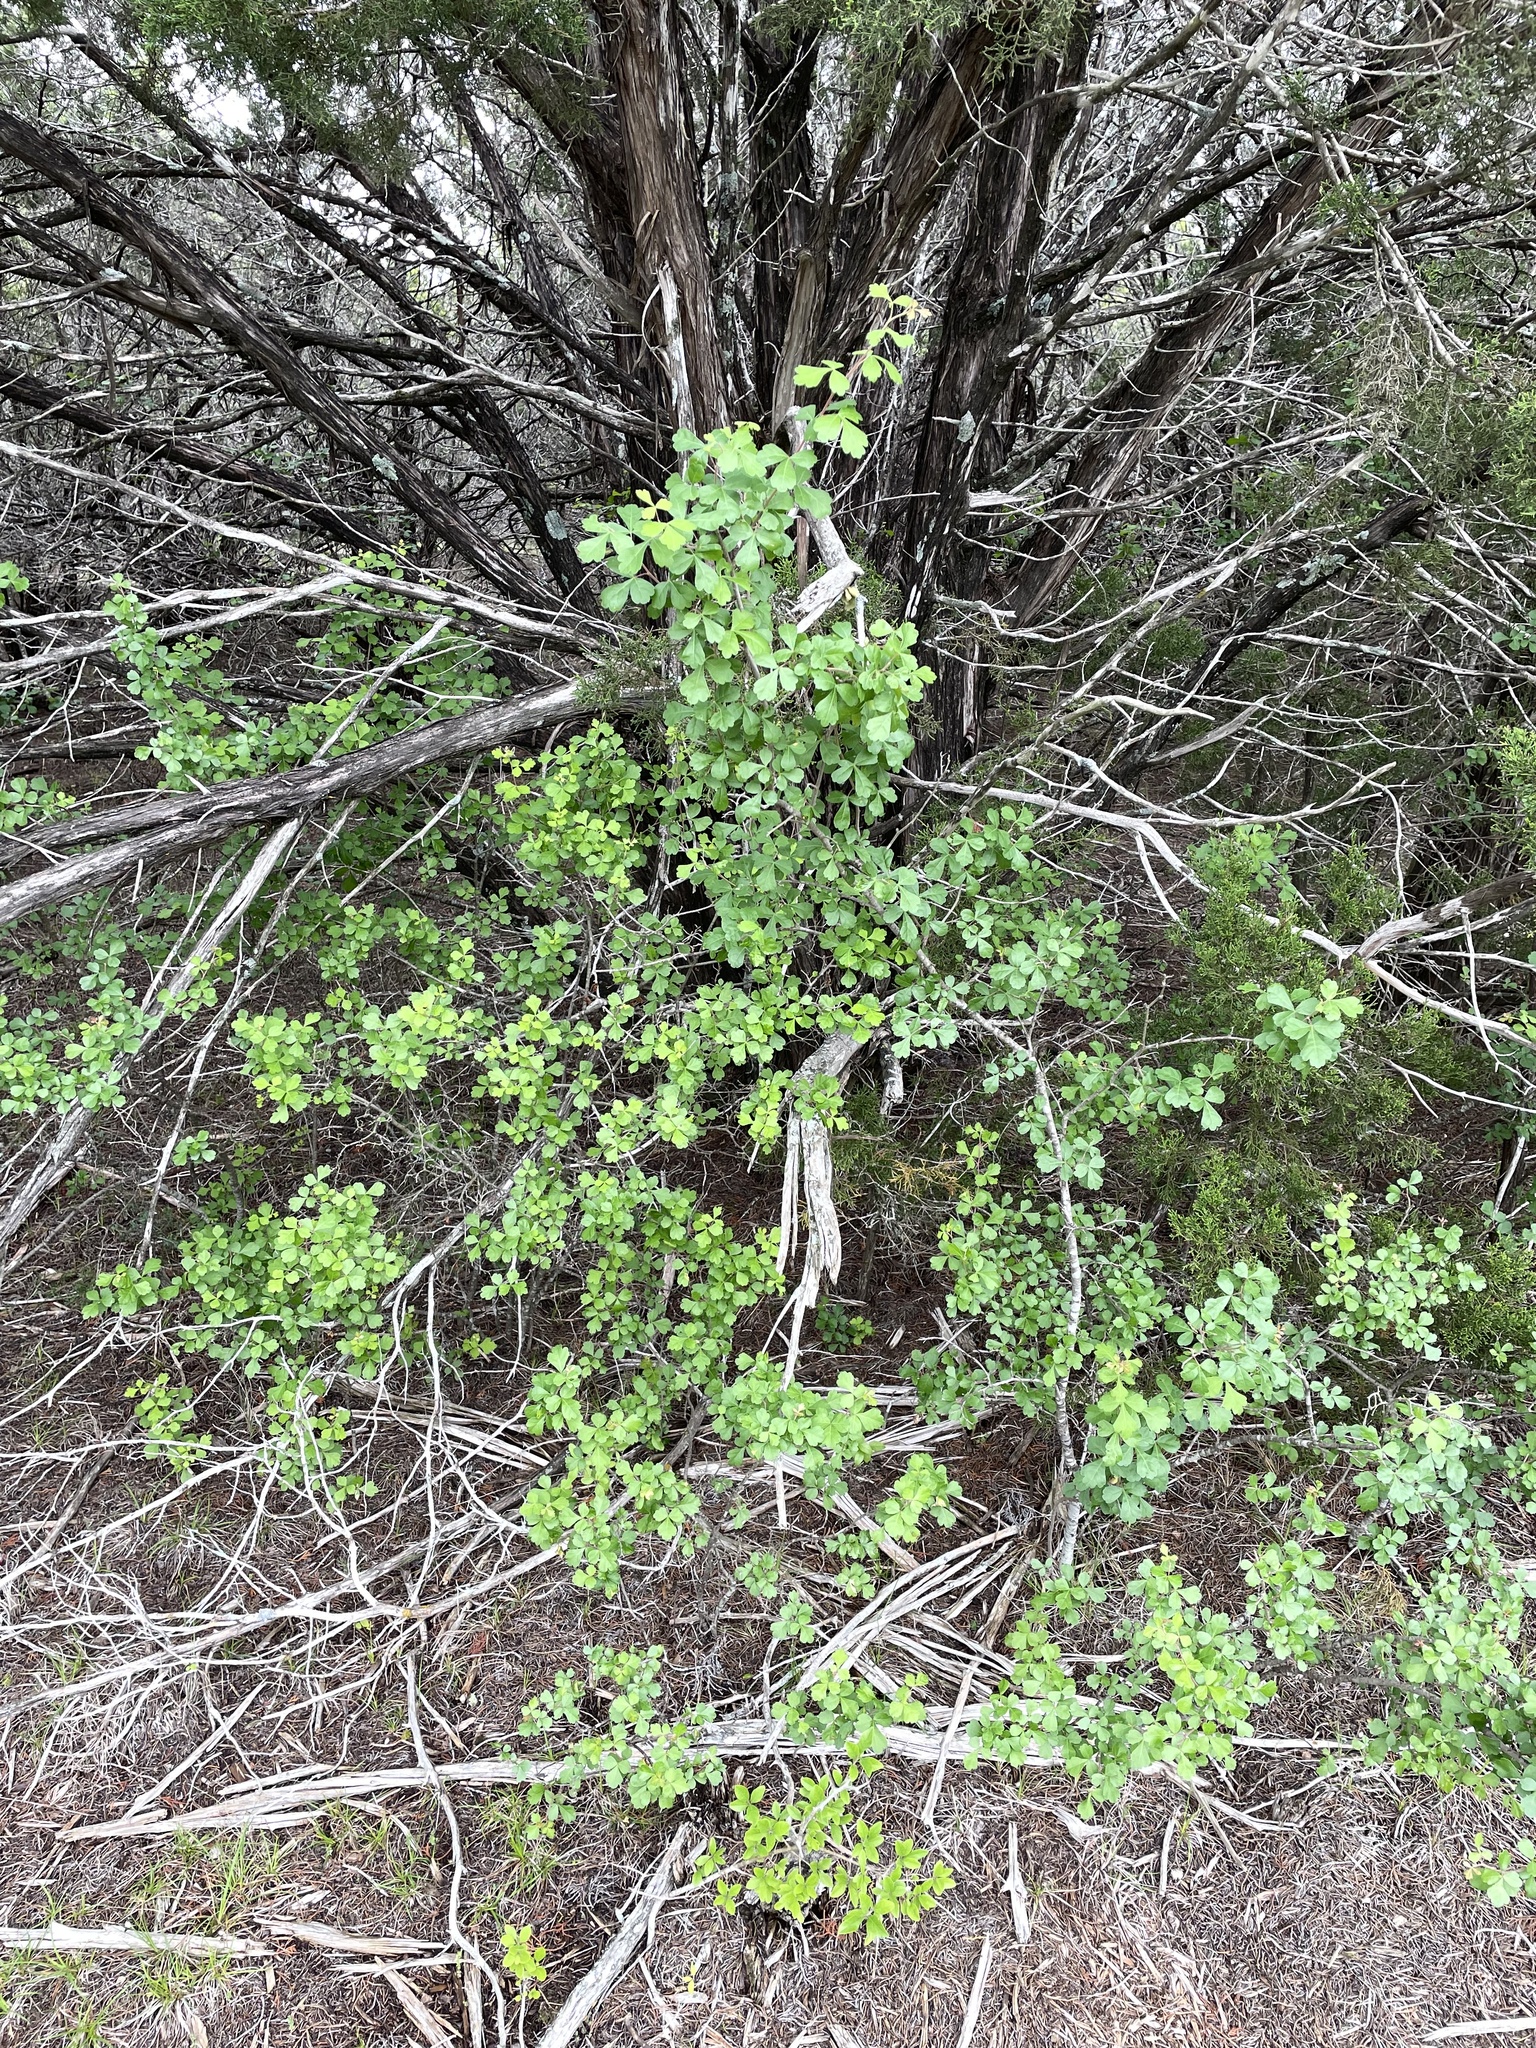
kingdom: Plantae
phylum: Tracheophyta
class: Magnoliopsida
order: Sapindales
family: Anacardiaceae
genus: Rhus
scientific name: Rhus aromatica
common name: Aromatic sumac
